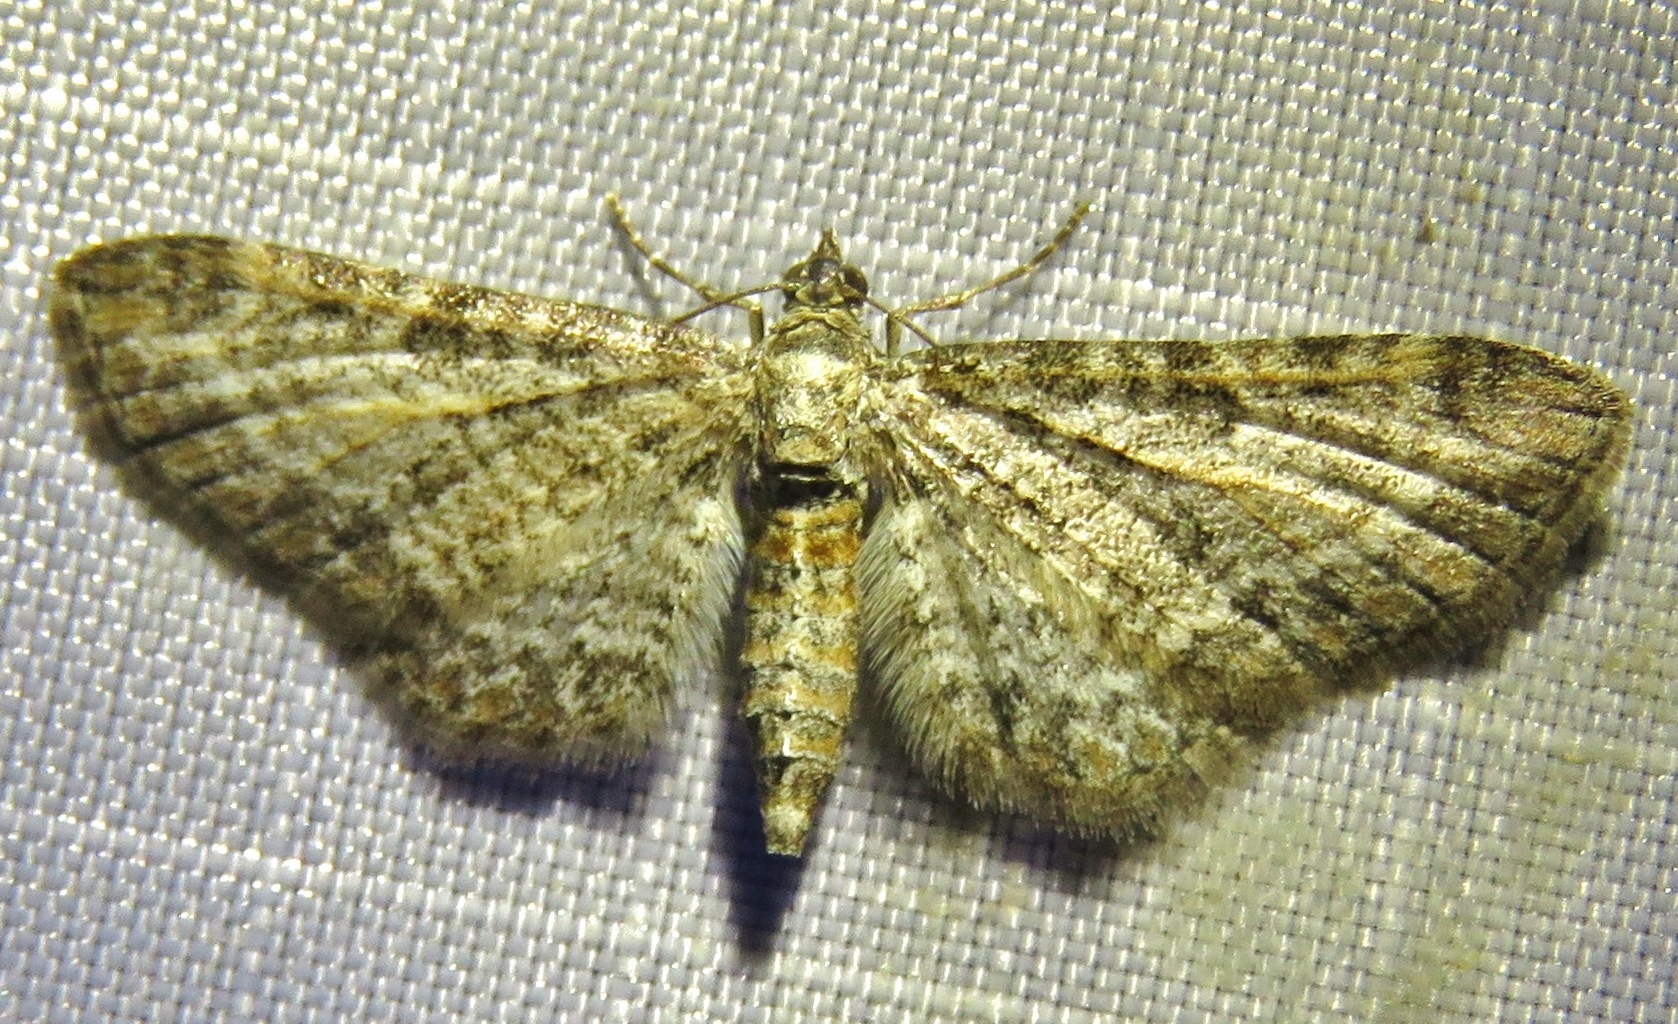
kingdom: Animalia
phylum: Arthropoda
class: Insecta
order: Lepidoptera
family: Geometridae
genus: Eupithecia
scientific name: Eupithecia subumbrata
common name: Shaded pug
